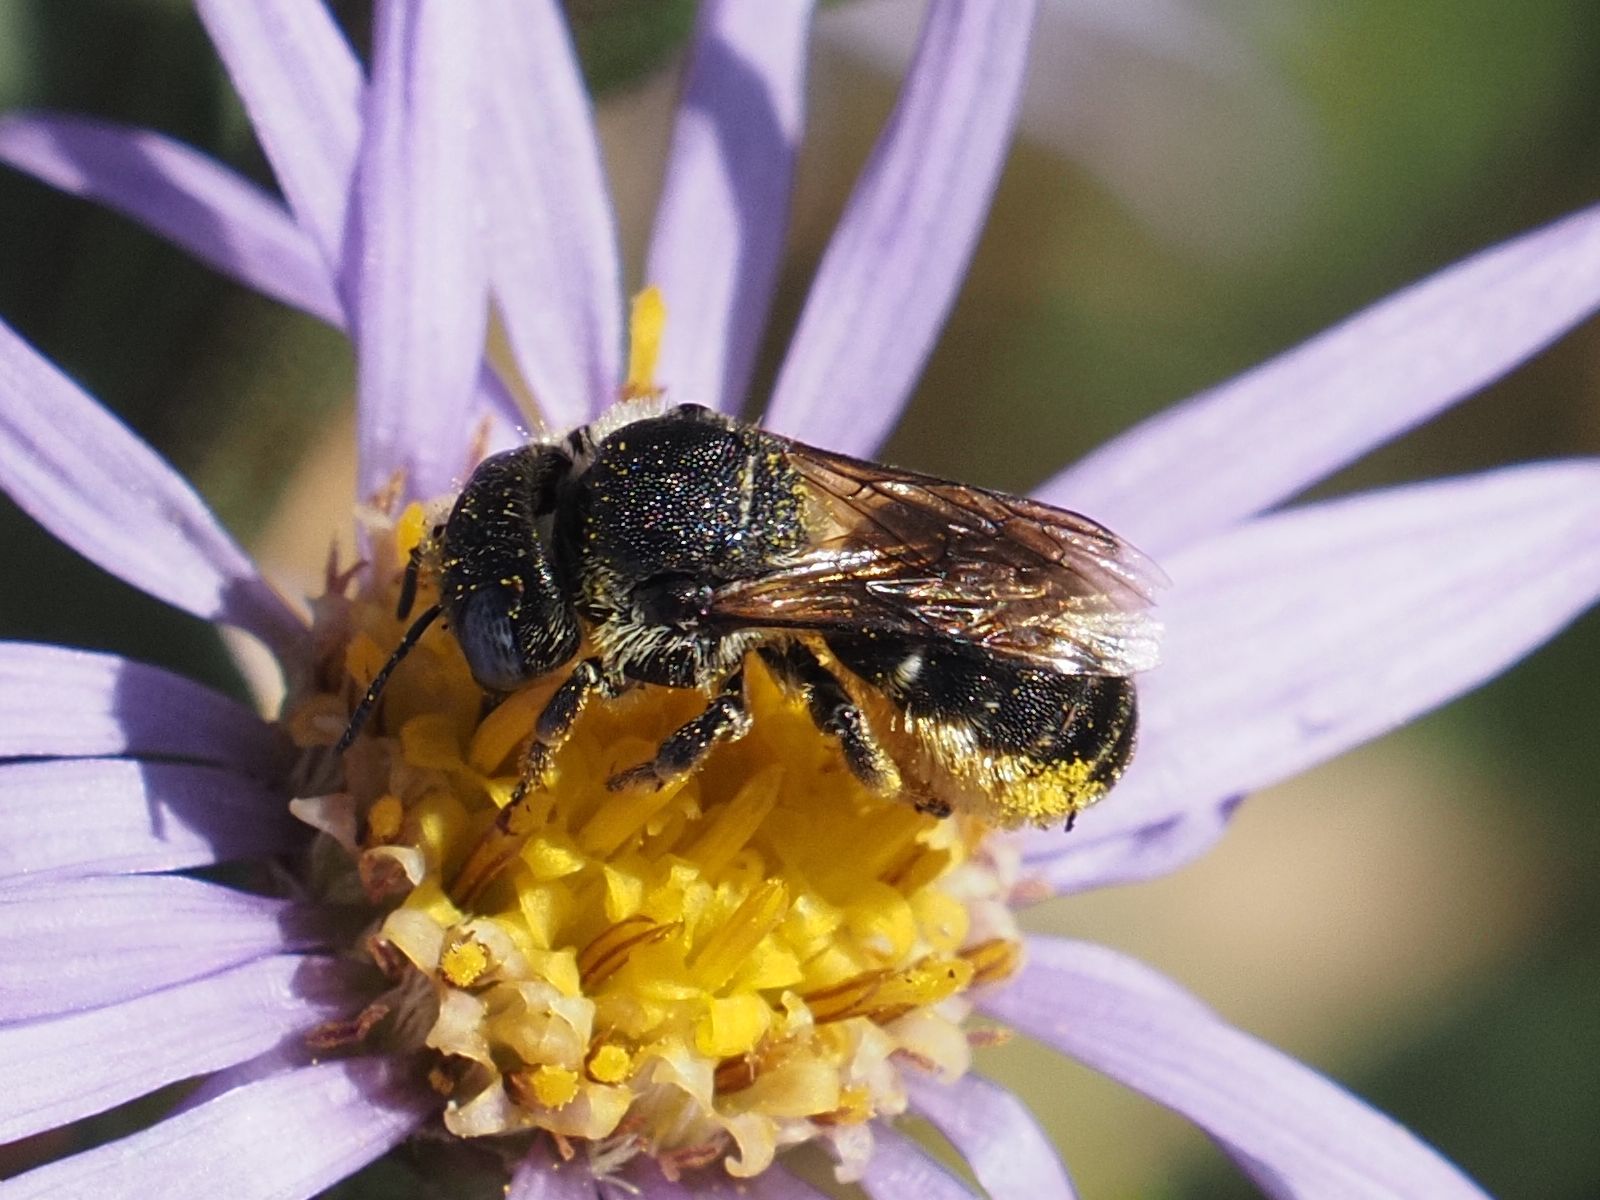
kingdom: Animalia
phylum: Arthropoda
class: Insecta
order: Hymenoptera
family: Megachilidae
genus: Osmia
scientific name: Osmia spinulosa
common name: Spined mason bee
